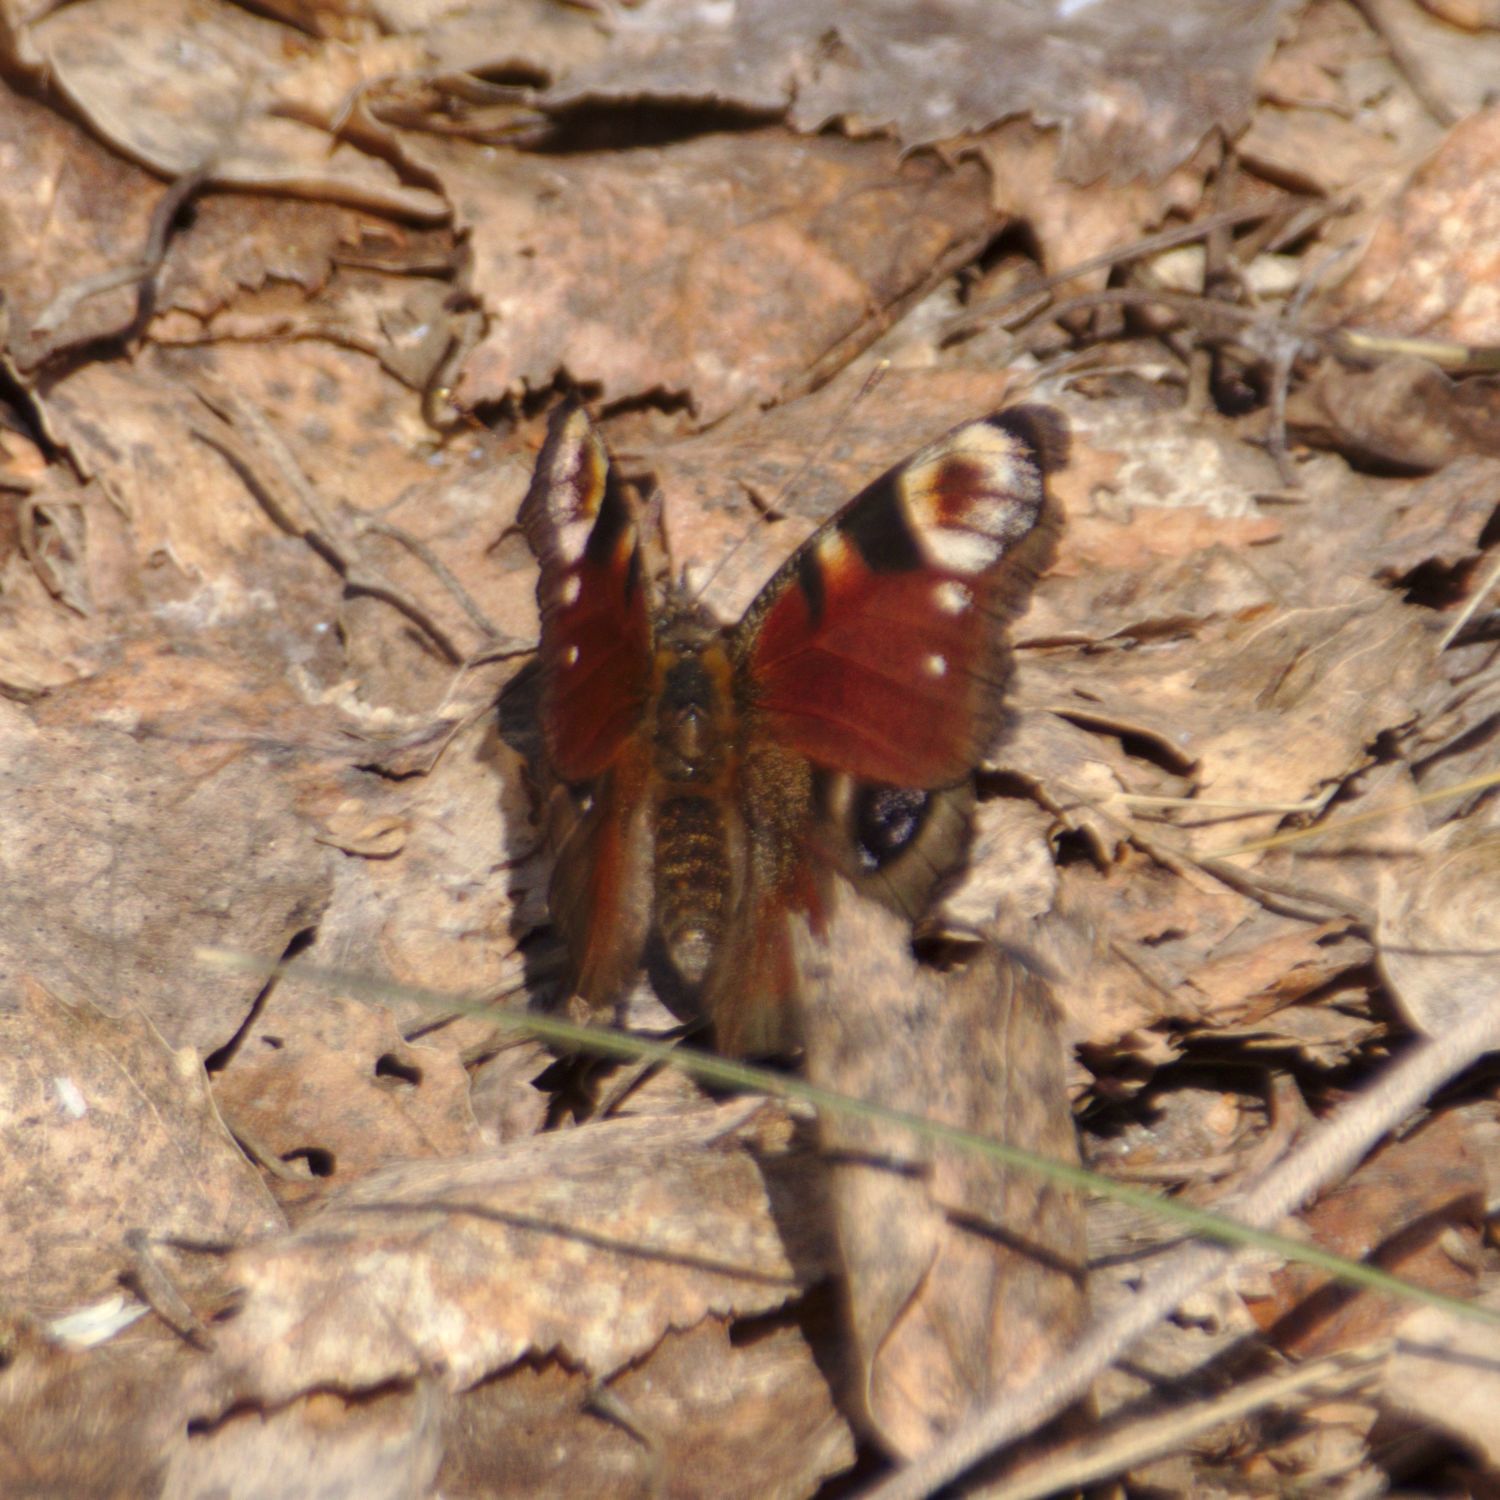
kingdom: Animalia
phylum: Arthropoda
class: Insecta
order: Lepidoptera
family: Nymphalidae
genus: Aglais
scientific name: Aglais io
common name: Peacock
